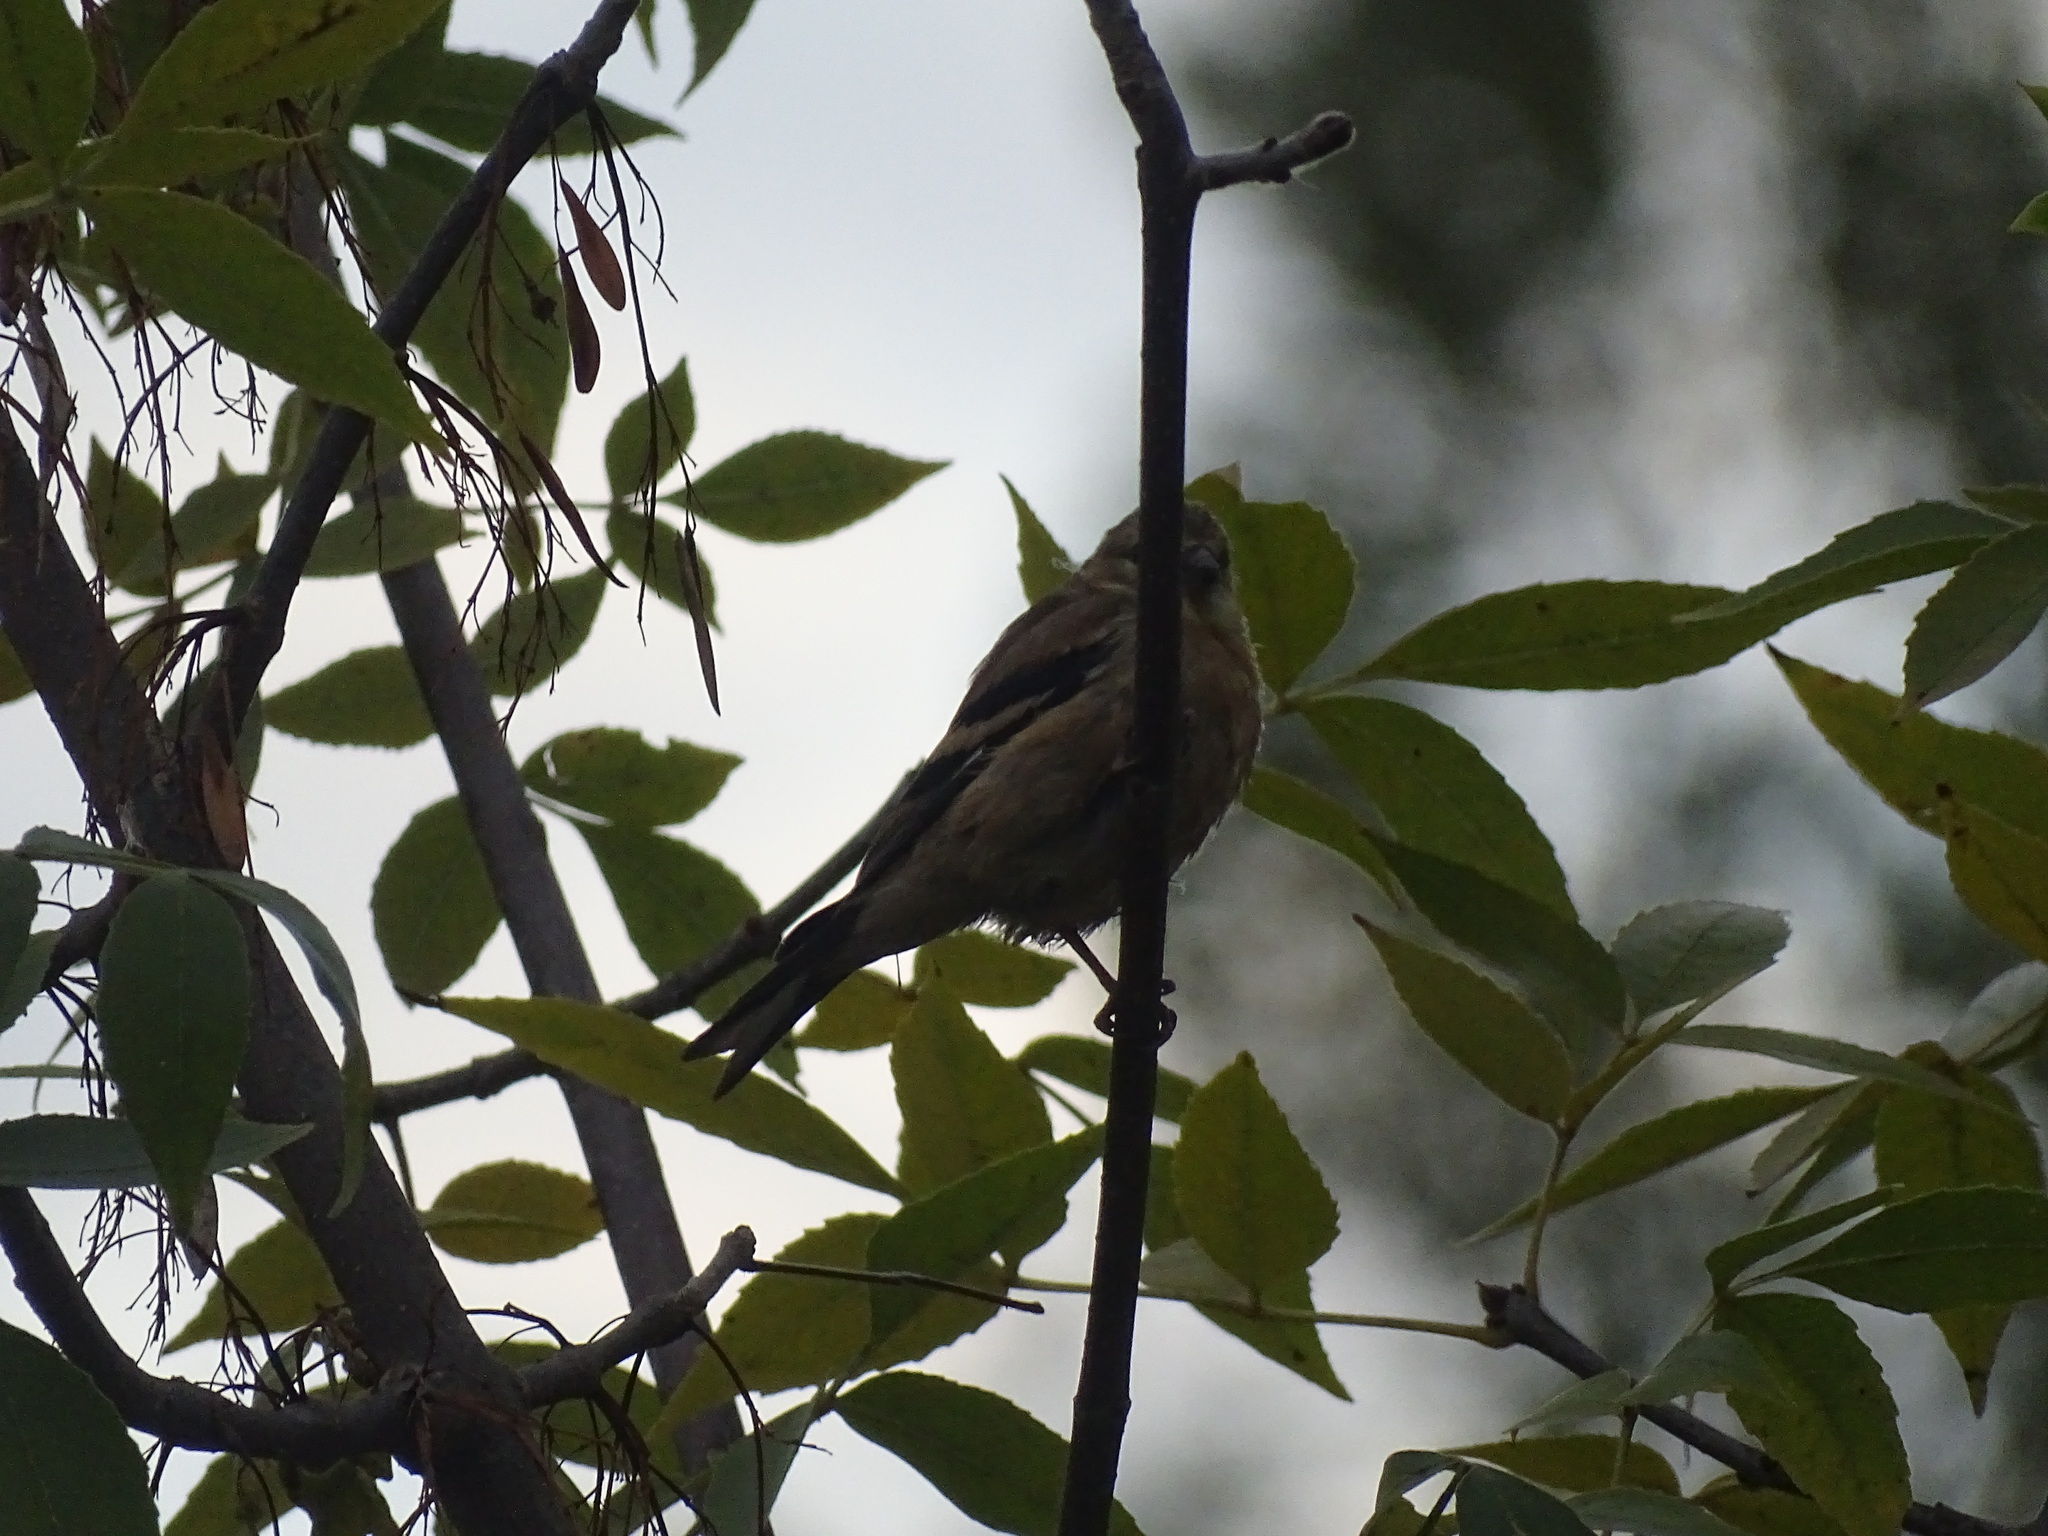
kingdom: Animalia
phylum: Chordata
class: Aves
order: Passeriformes
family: Fringillidae
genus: Spinus
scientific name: Spinus tristis
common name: American goldfinch
